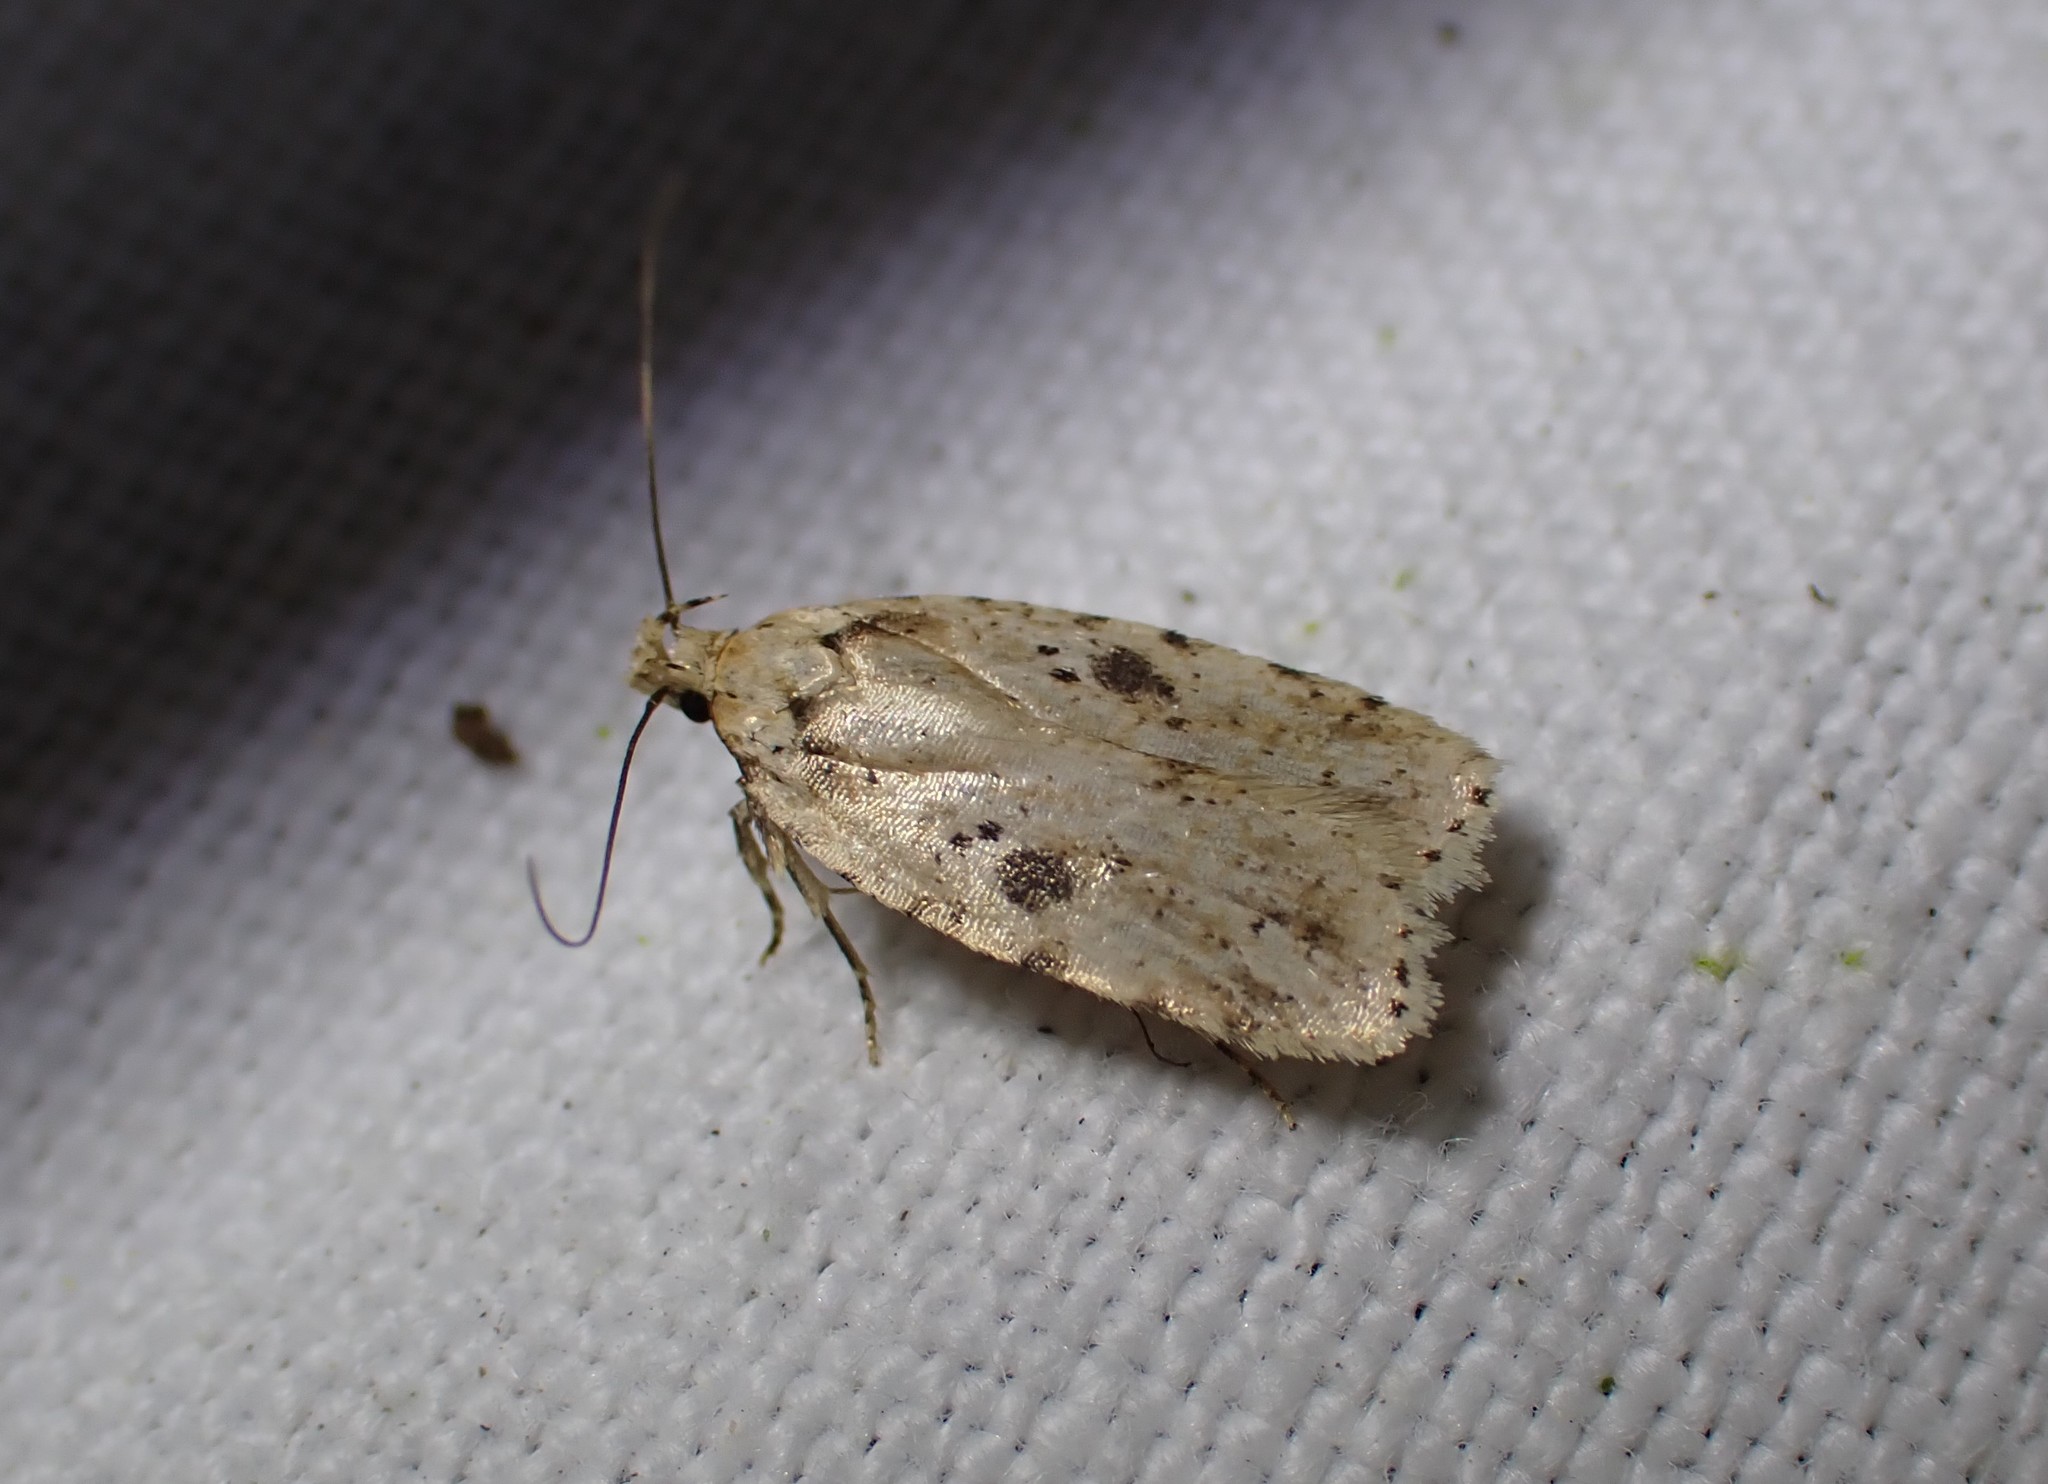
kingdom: Animalia
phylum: Arthropoda
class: Insecta
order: Lepidoptera
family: Depressariidae
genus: Agonopterix
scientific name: Agonopterix arenella
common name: Brindled flat-body
